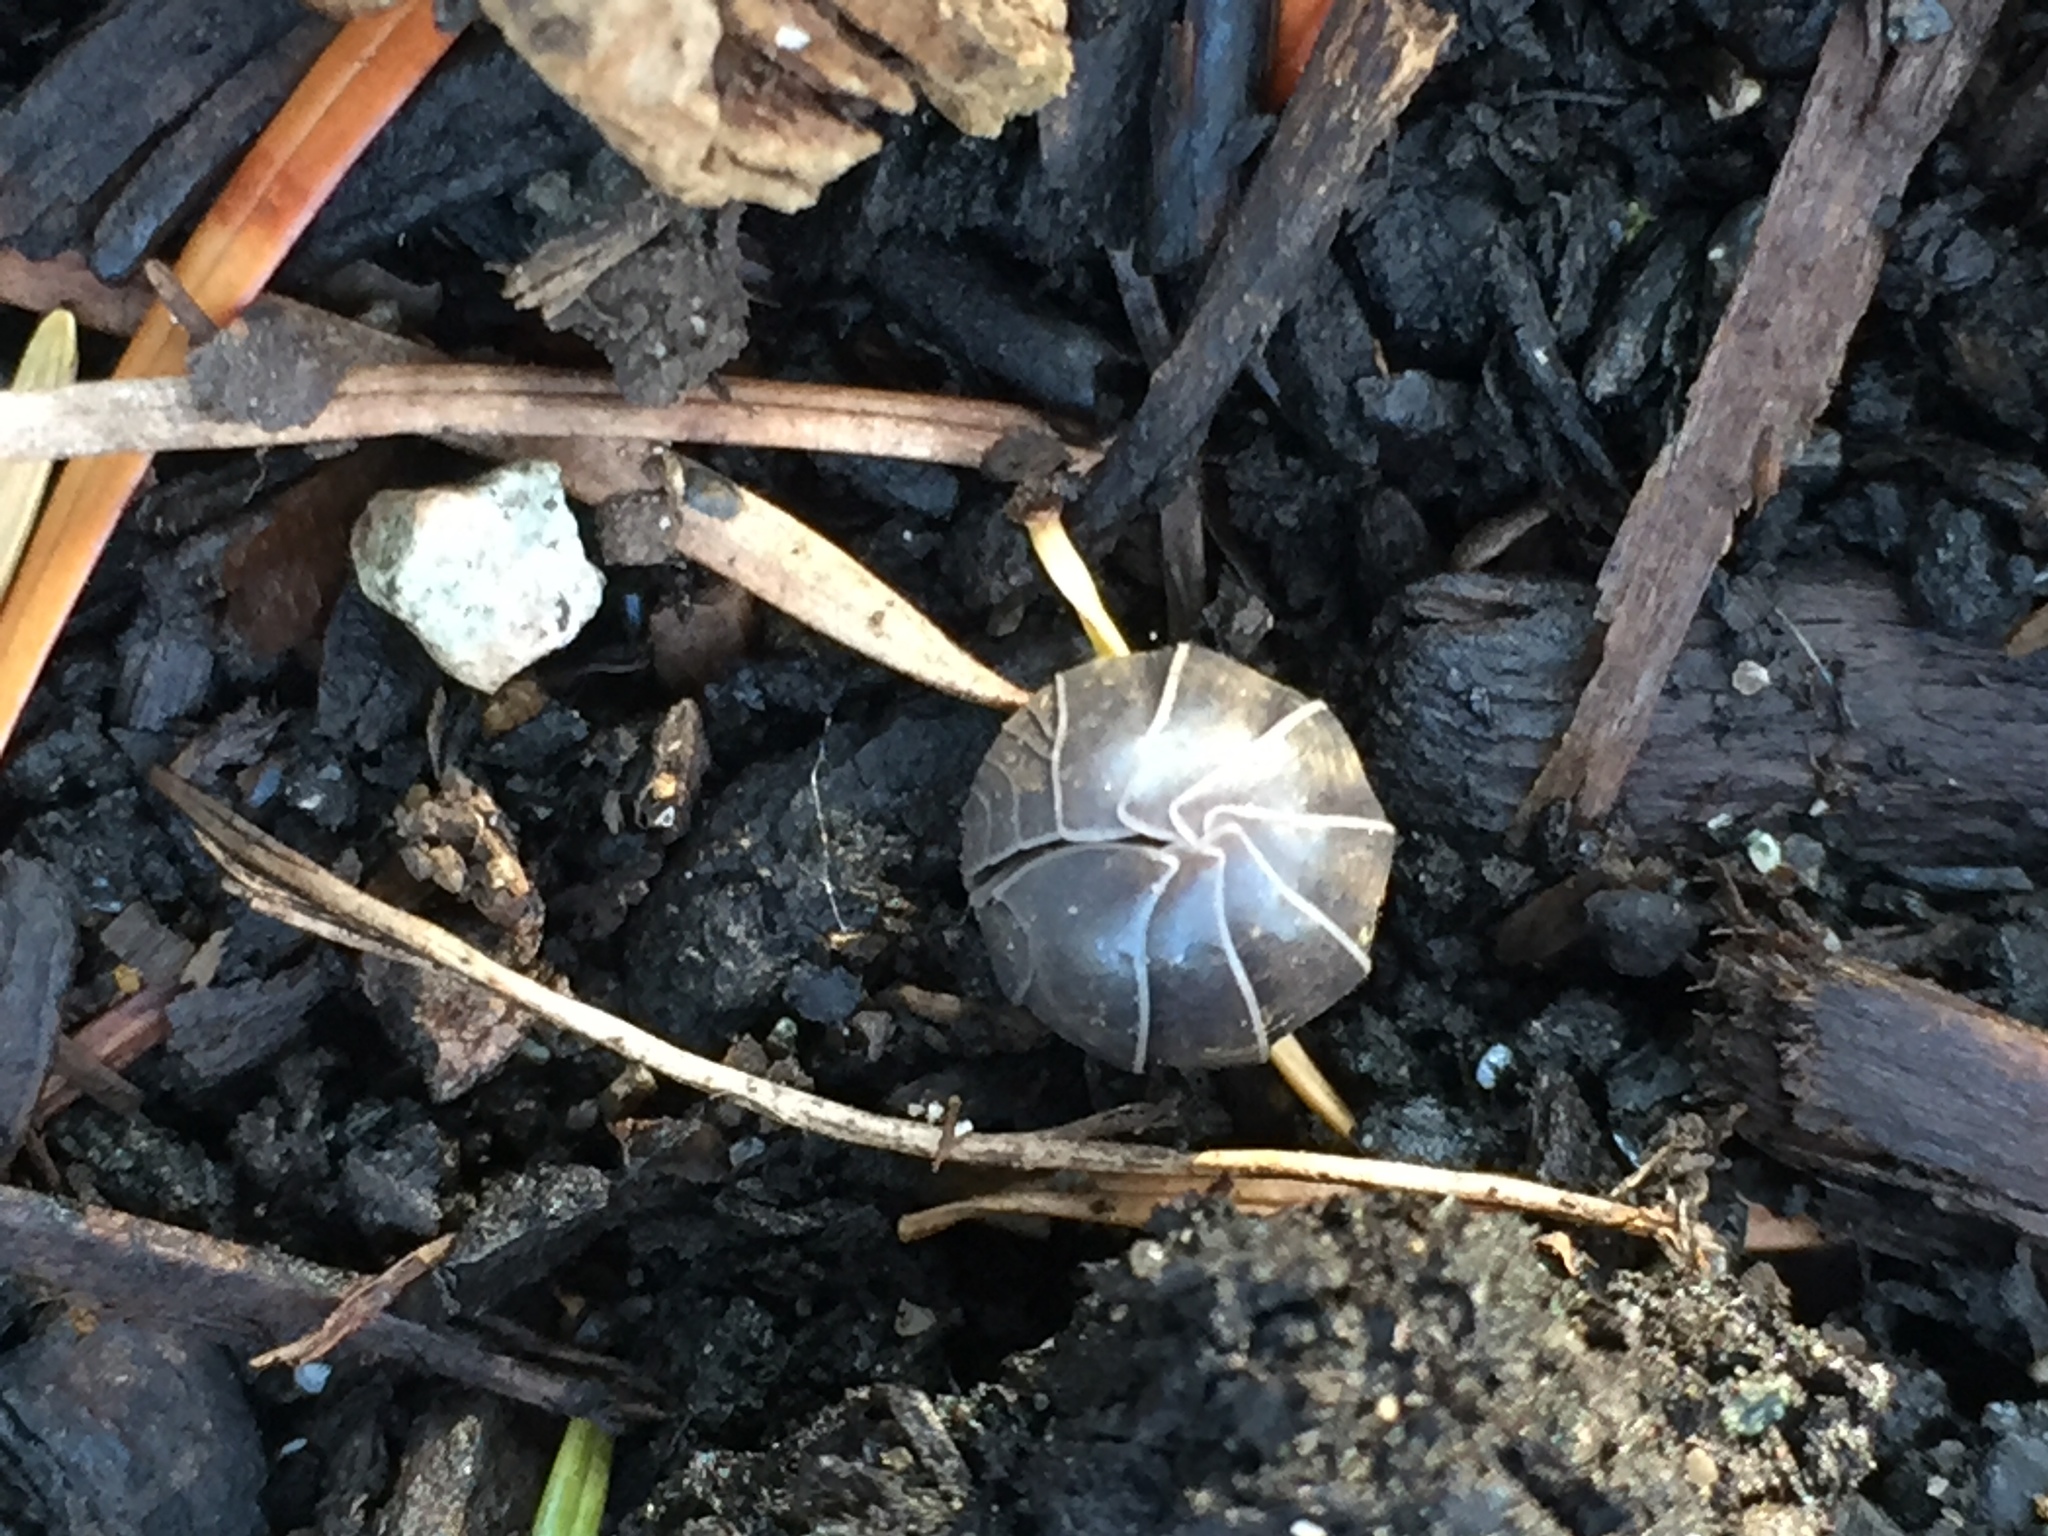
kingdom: Animalia
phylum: Arthropoda
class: Malacostraca
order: Isopoda
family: Armadillidiidae
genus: Armadillidium
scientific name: Armadillidium vulgare
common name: Common pill woodlouse
